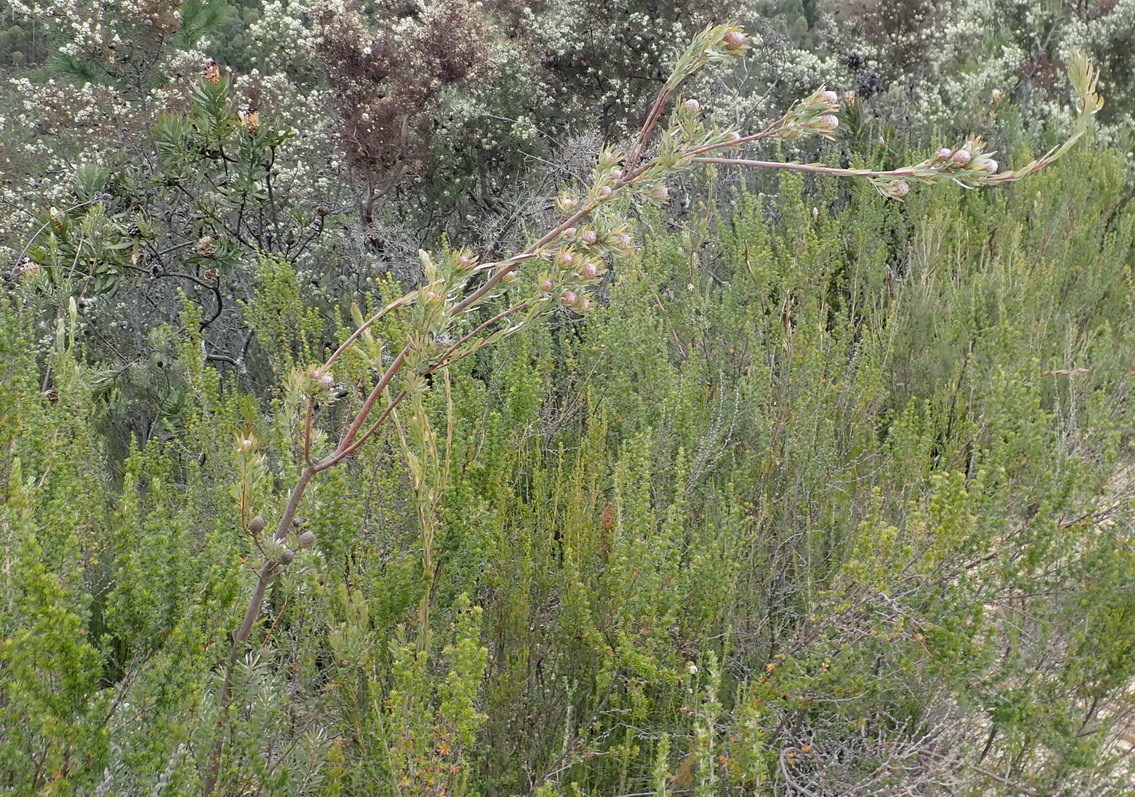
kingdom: Plantae
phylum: Tracheophyta
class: Magnoliopsida
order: Proteales
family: Proteaceae
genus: Leucadendron
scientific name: Leucadendron uliginosum
